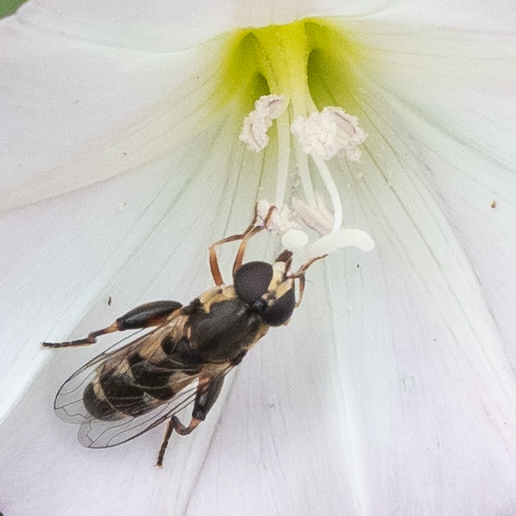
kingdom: Animalia
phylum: Arthropoda
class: Insecta
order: Diptera
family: Syrphidae
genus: Syritta
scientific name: Syritta pipiens
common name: Hover fly
